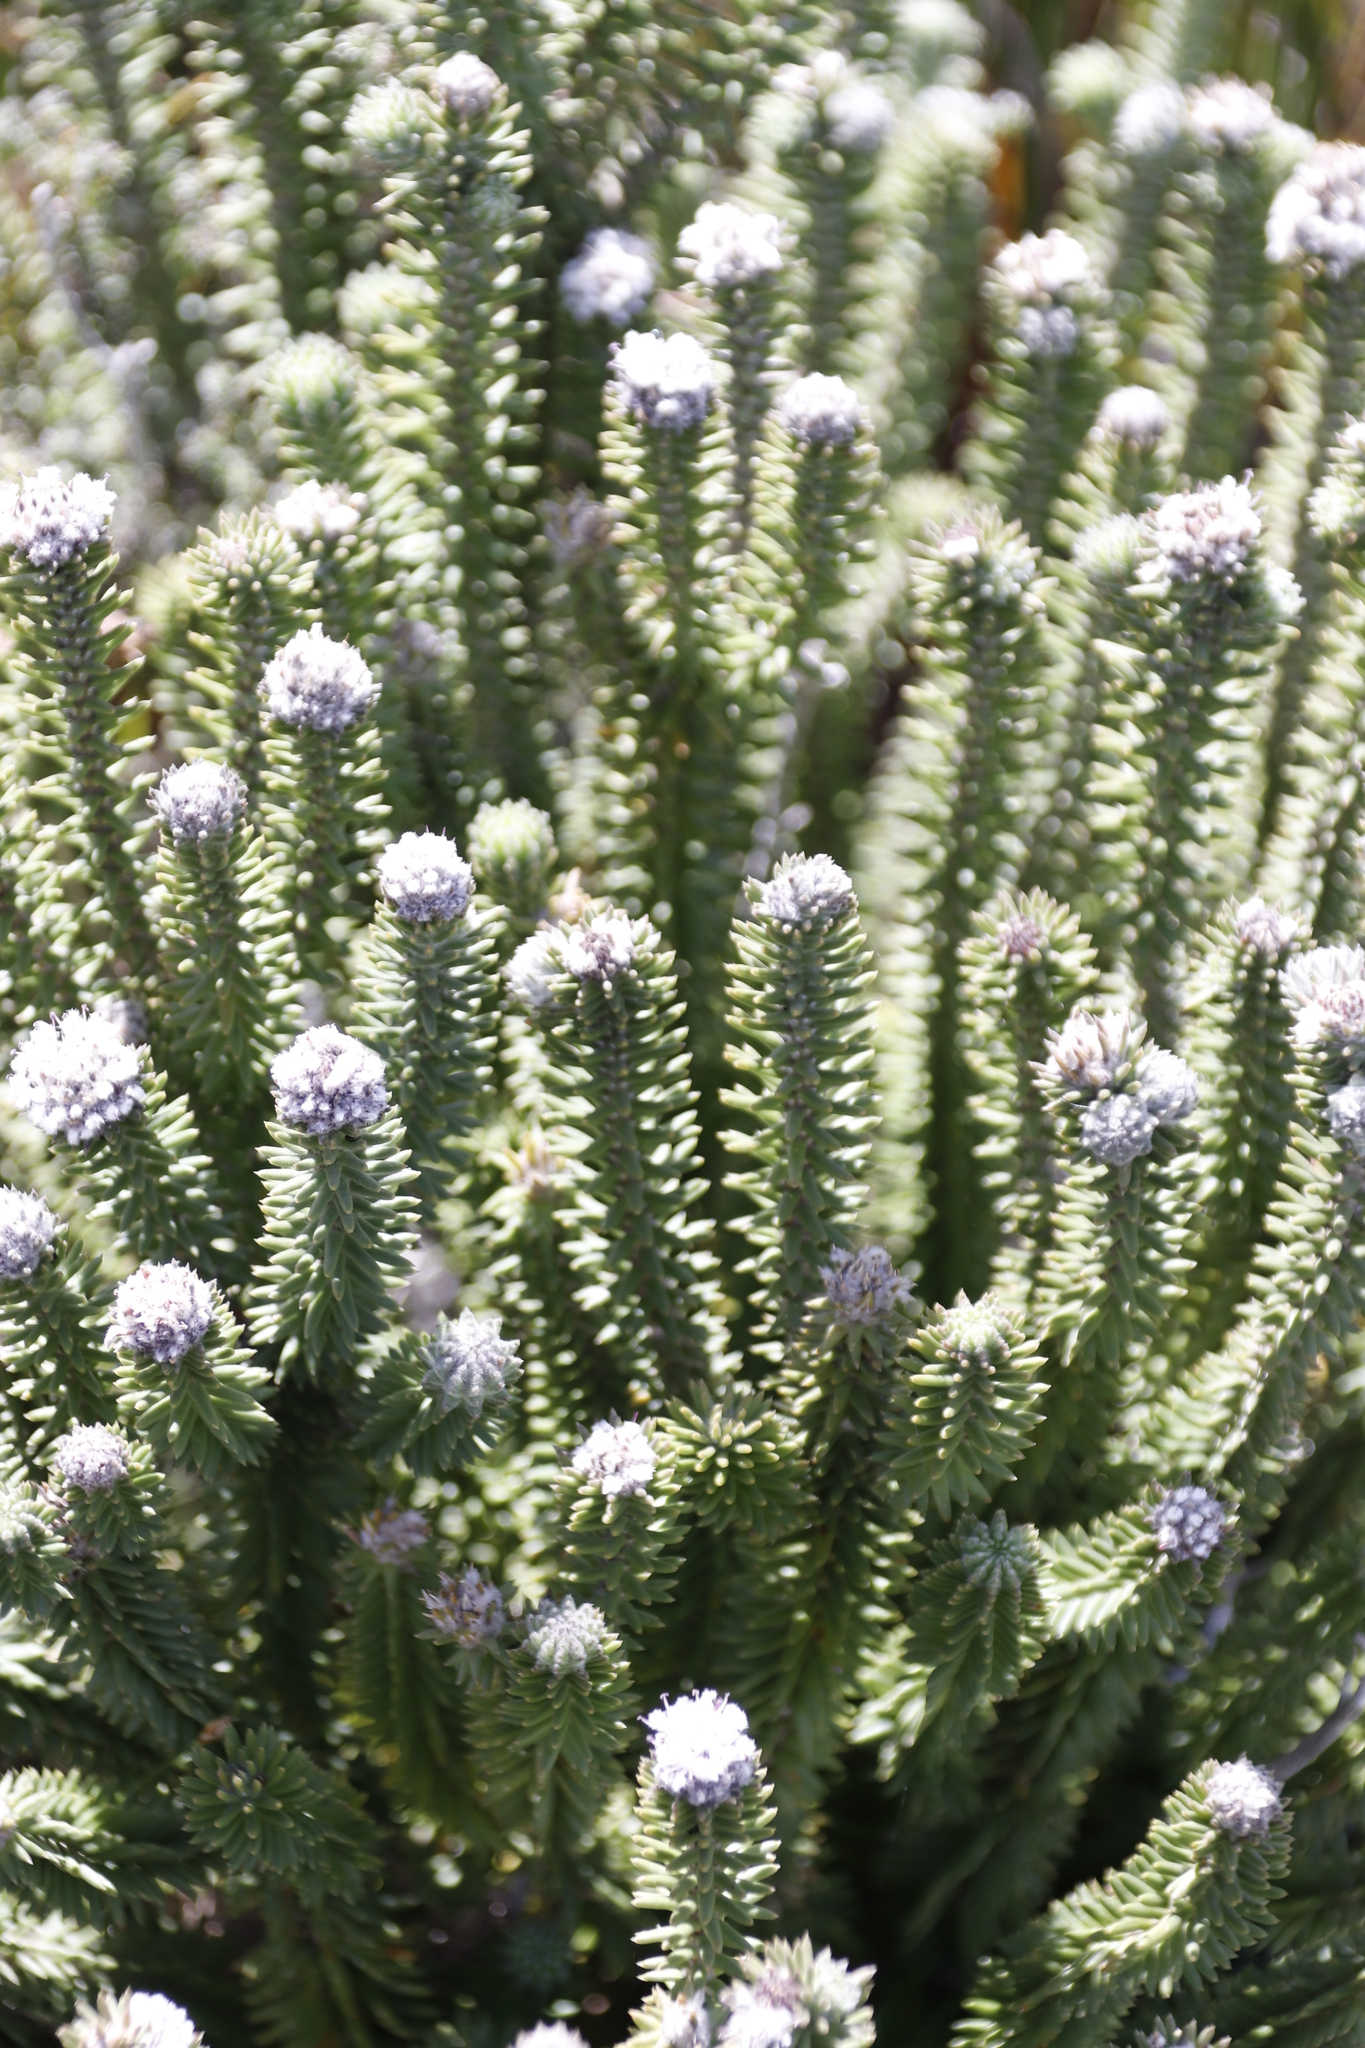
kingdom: Plantae
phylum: Tracheophyta
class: Magnoliopsida
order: Lamiales
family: Stilbaceae
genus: Kogelbergia
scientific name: Kogelbergia verticillata
